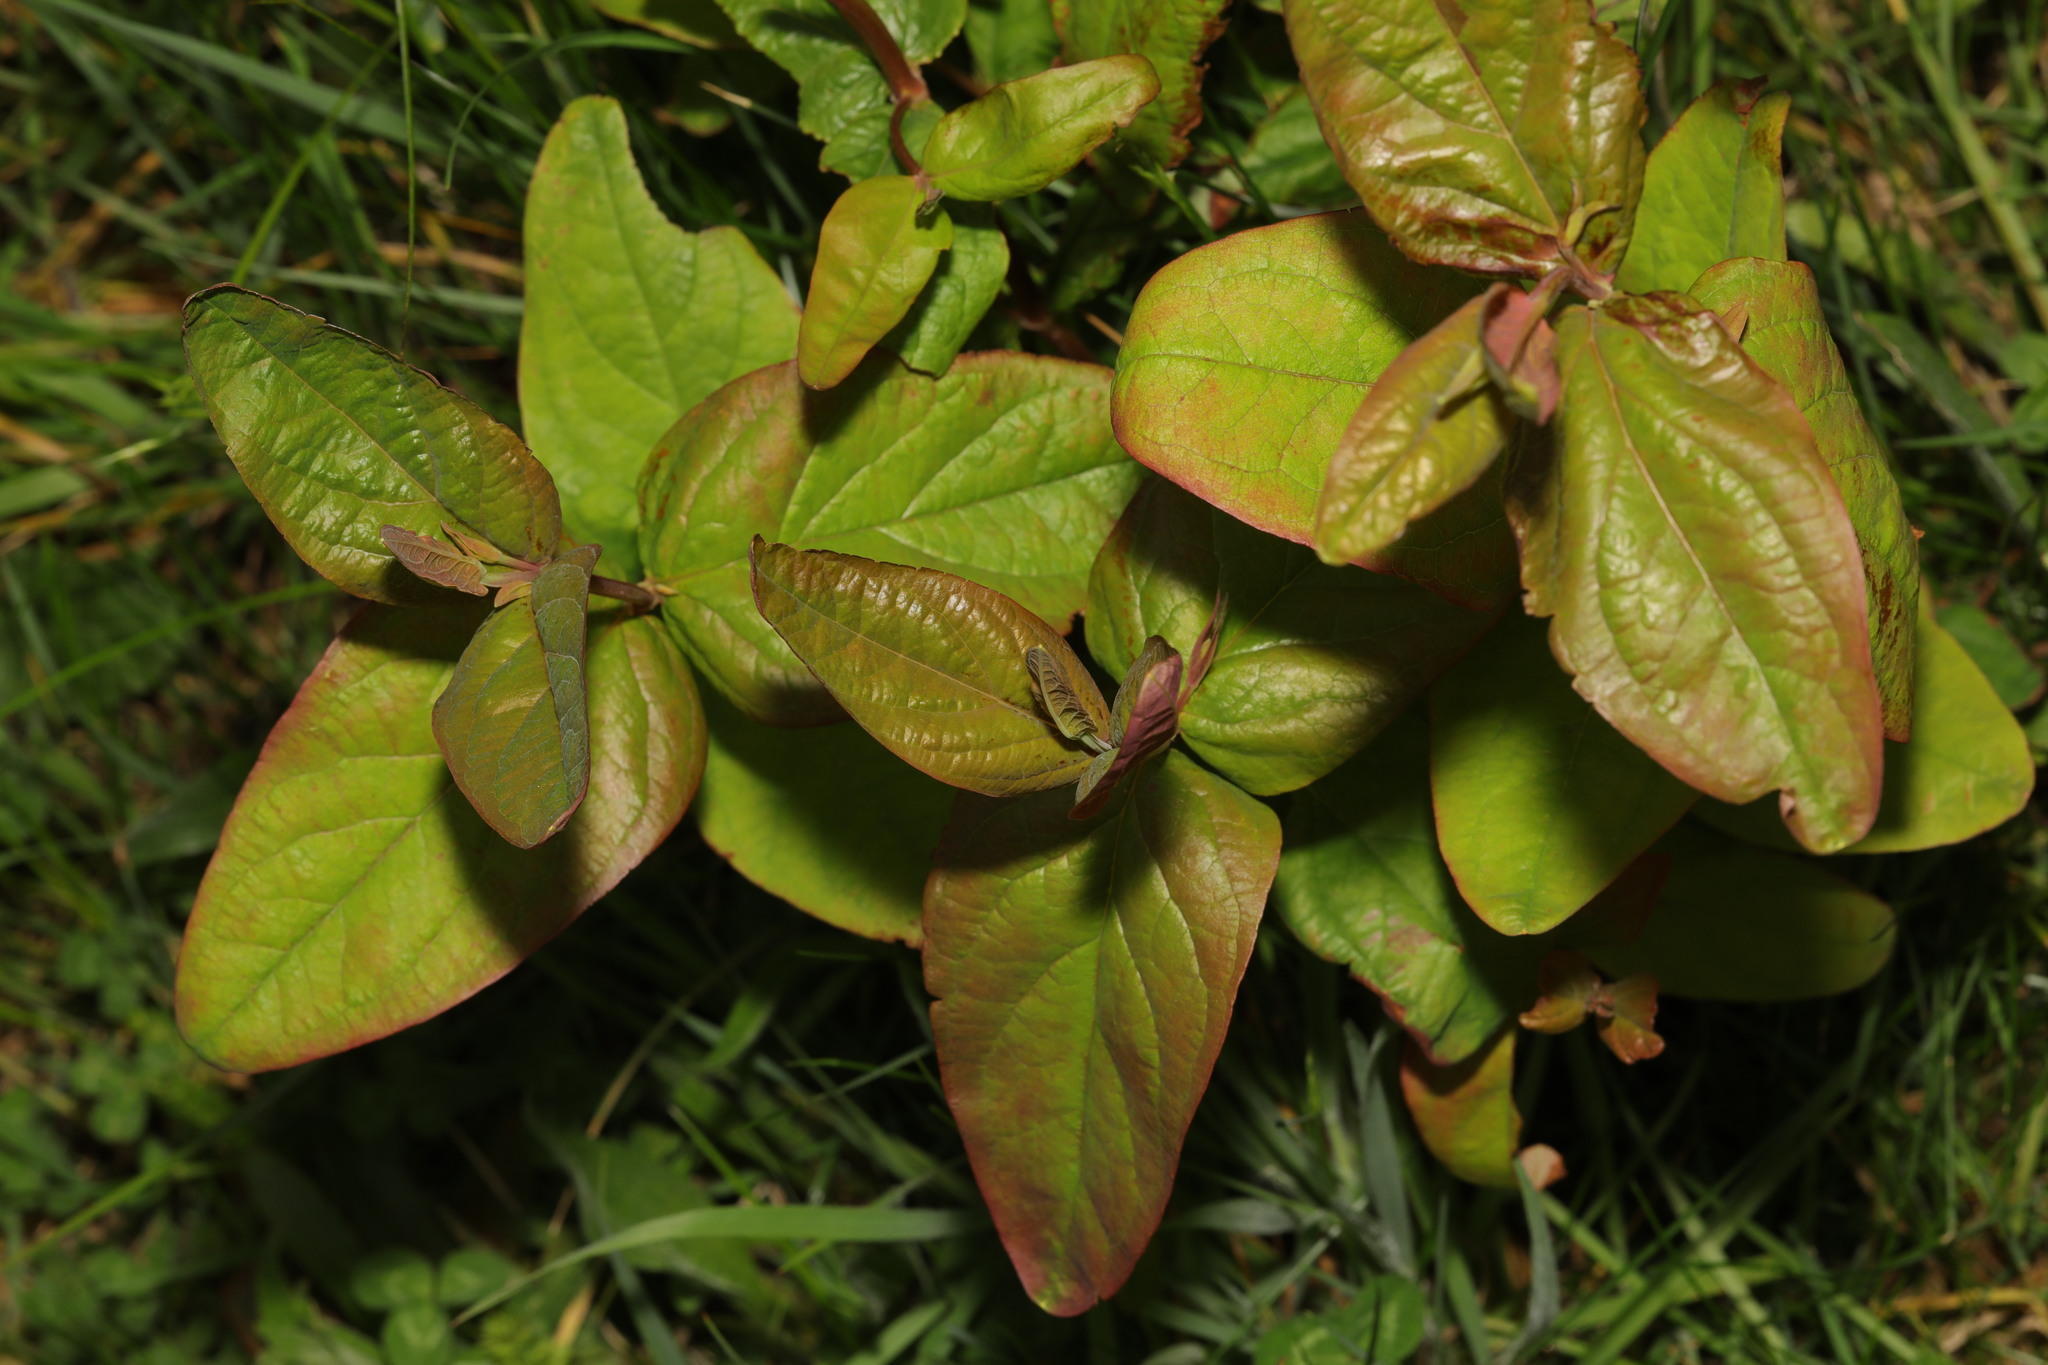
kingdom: Plantae
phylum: Tracheophyta
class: Magnoliopsida
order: Malpighiales
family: Hypericaceae
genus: Hypericum
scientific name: Hypericum androsaemum
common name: Sweet-amber
